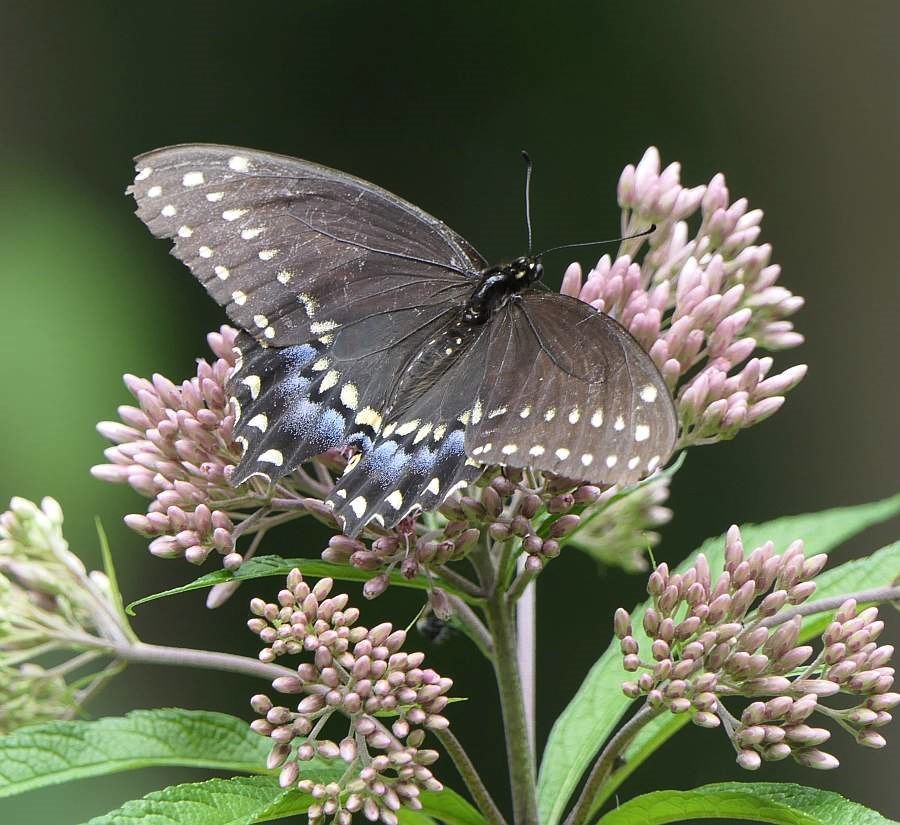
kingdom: Animalia
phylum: Arthropoda
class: Insecta
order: Lepidoptera
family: Papilionidae
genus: Papilio
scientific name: Papilio polyxenes
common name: Black swallowtail
